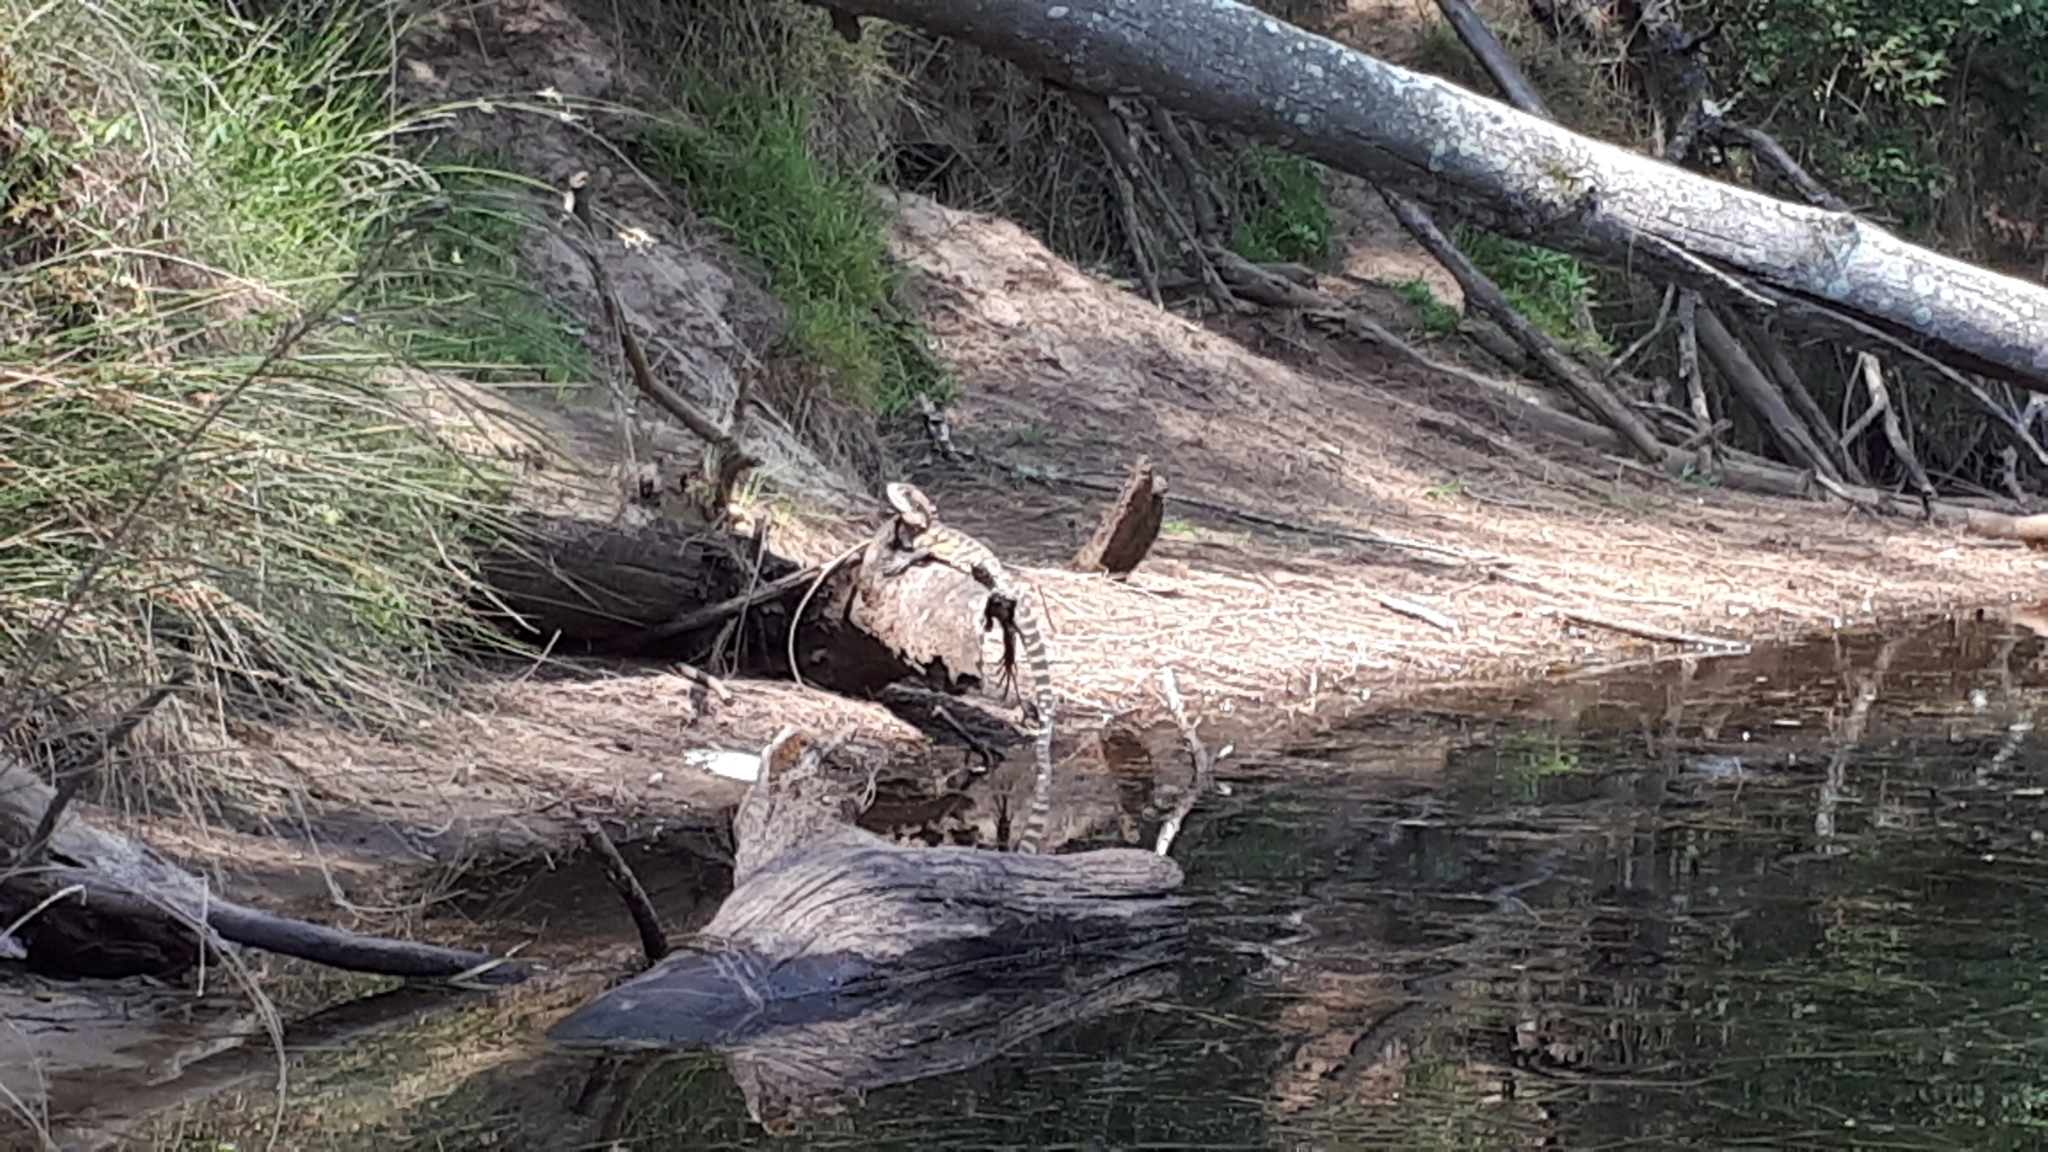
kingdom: Animalia
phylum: Chordata
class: Squamata
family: Agamidae
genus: Intellagama
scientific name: Intellagama lesueurii
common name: Eastern water dragon
